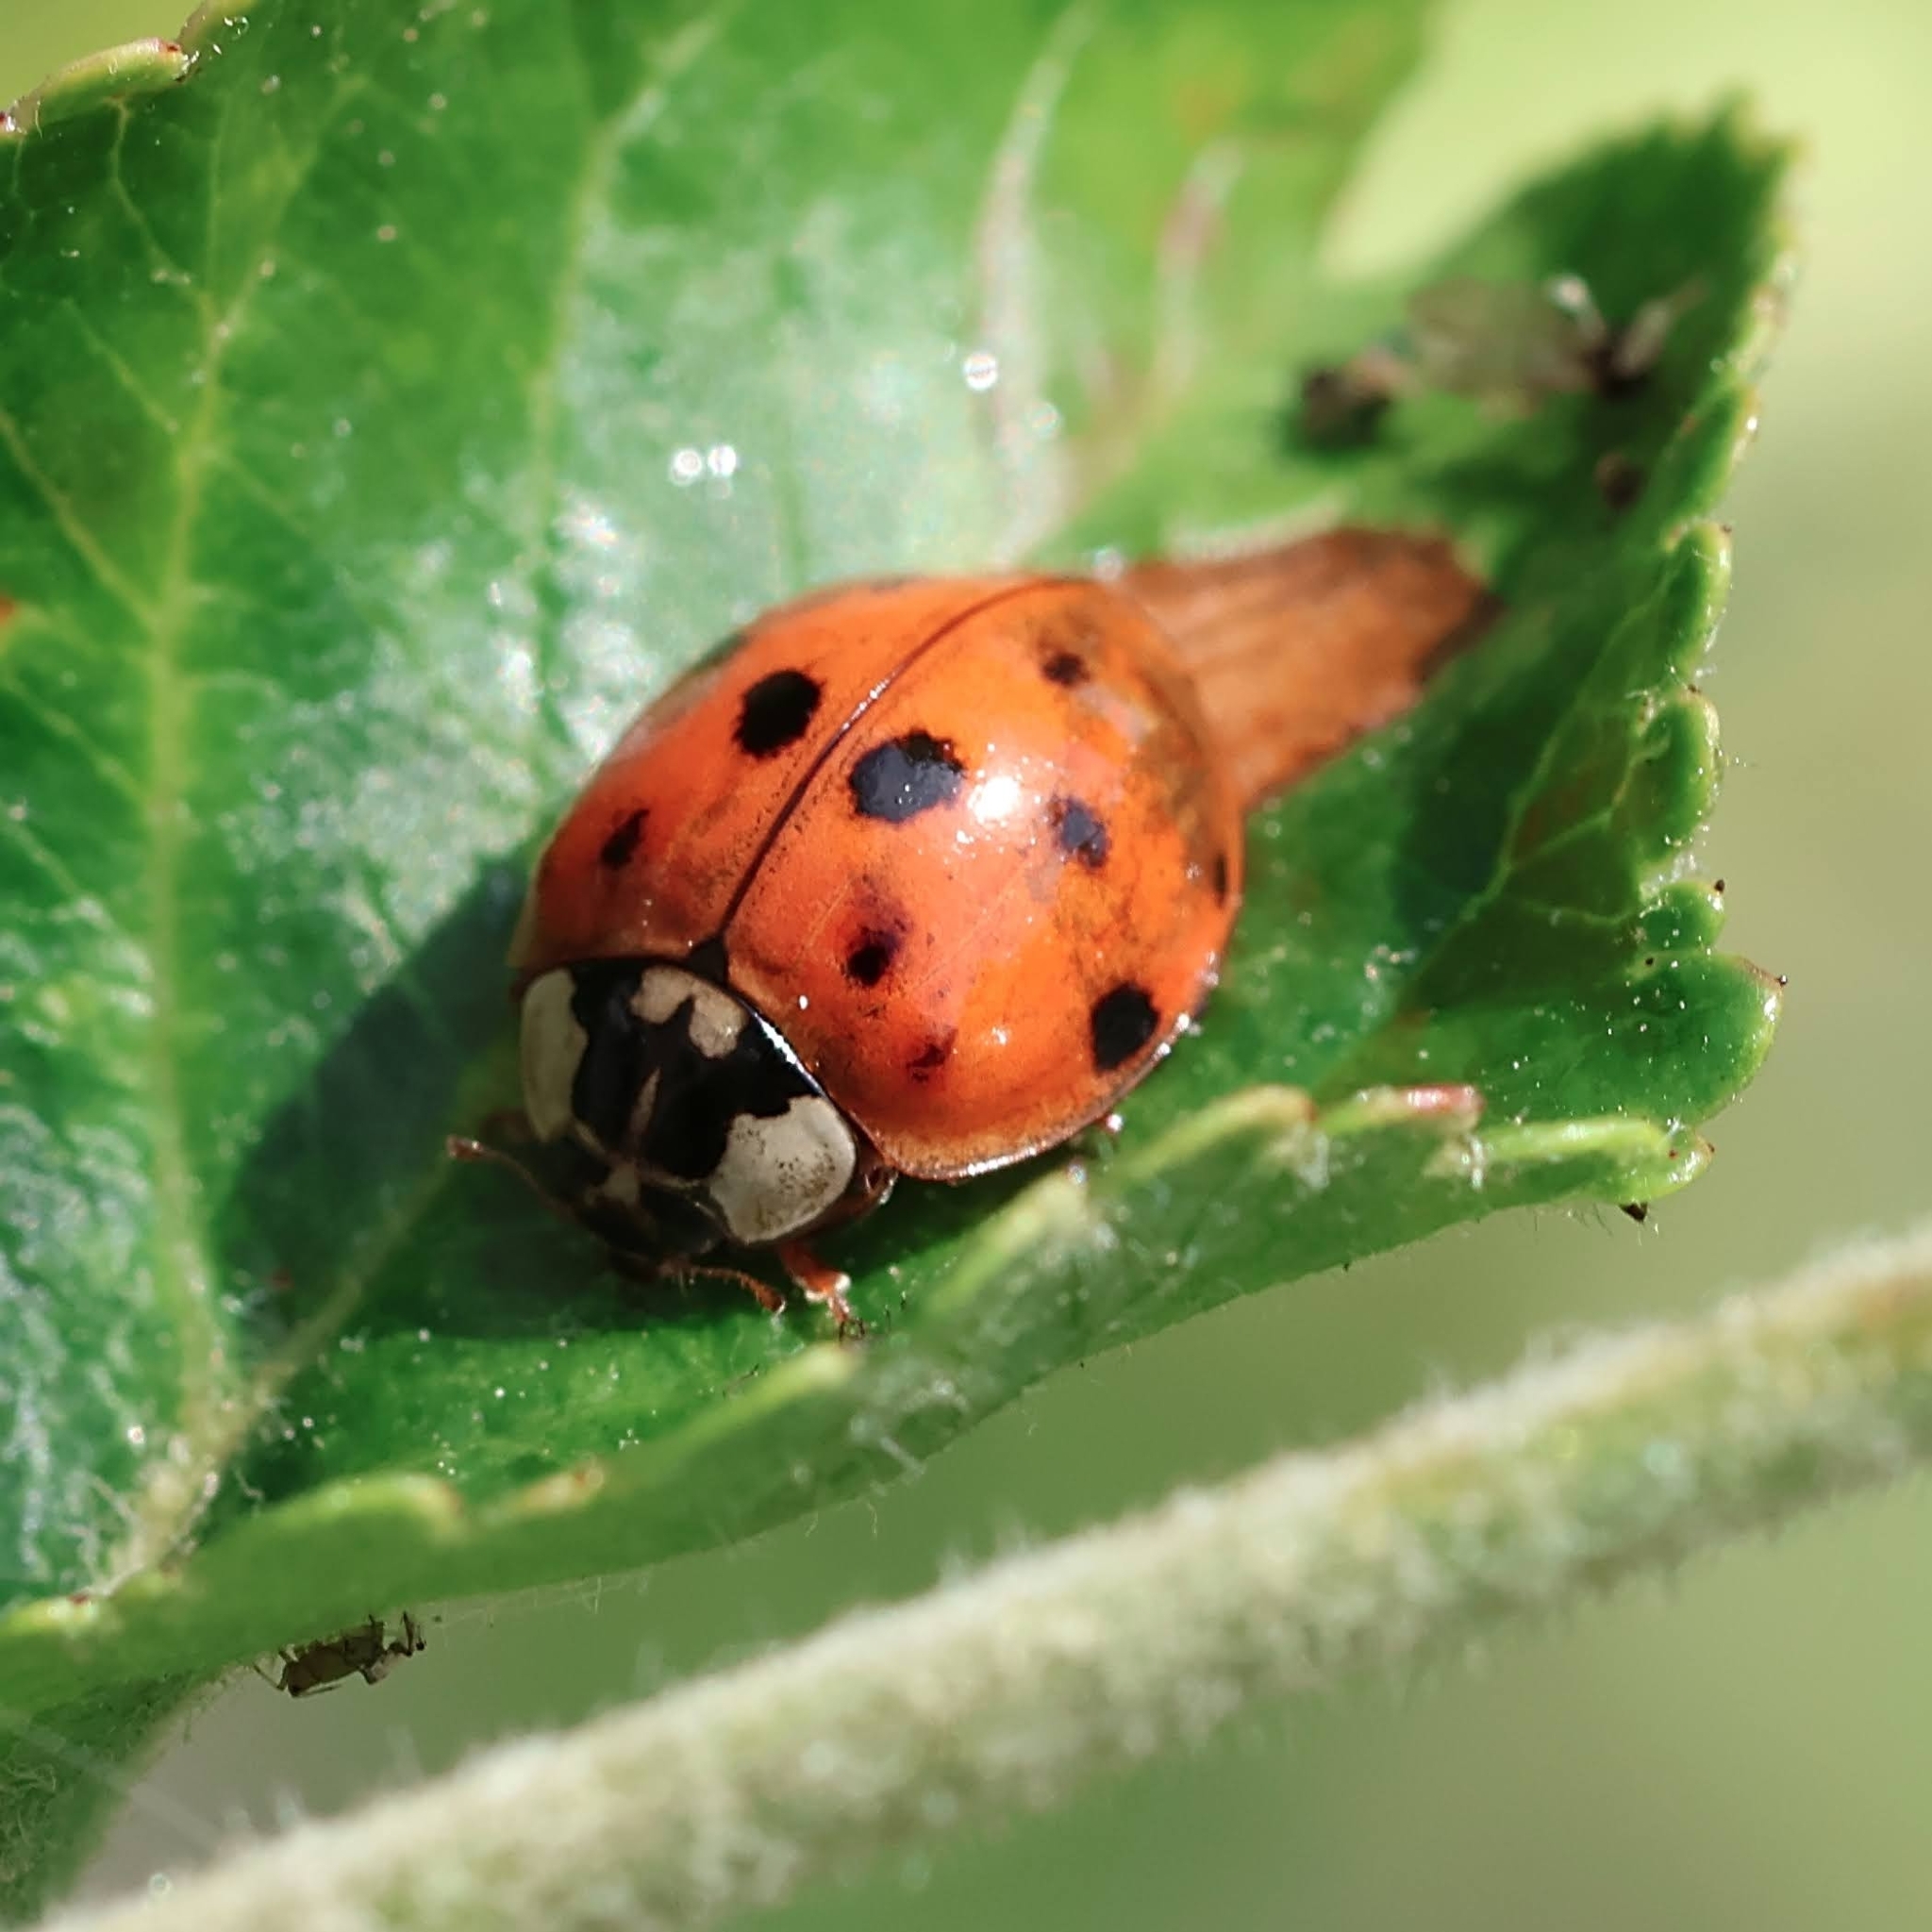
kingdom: Animalia
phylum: Arthropoda
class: Insecta
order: Coleoptera
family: Coccinellidae
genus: Harmonia
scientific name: Harmonia axyridis
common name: Harlequin ladybird
